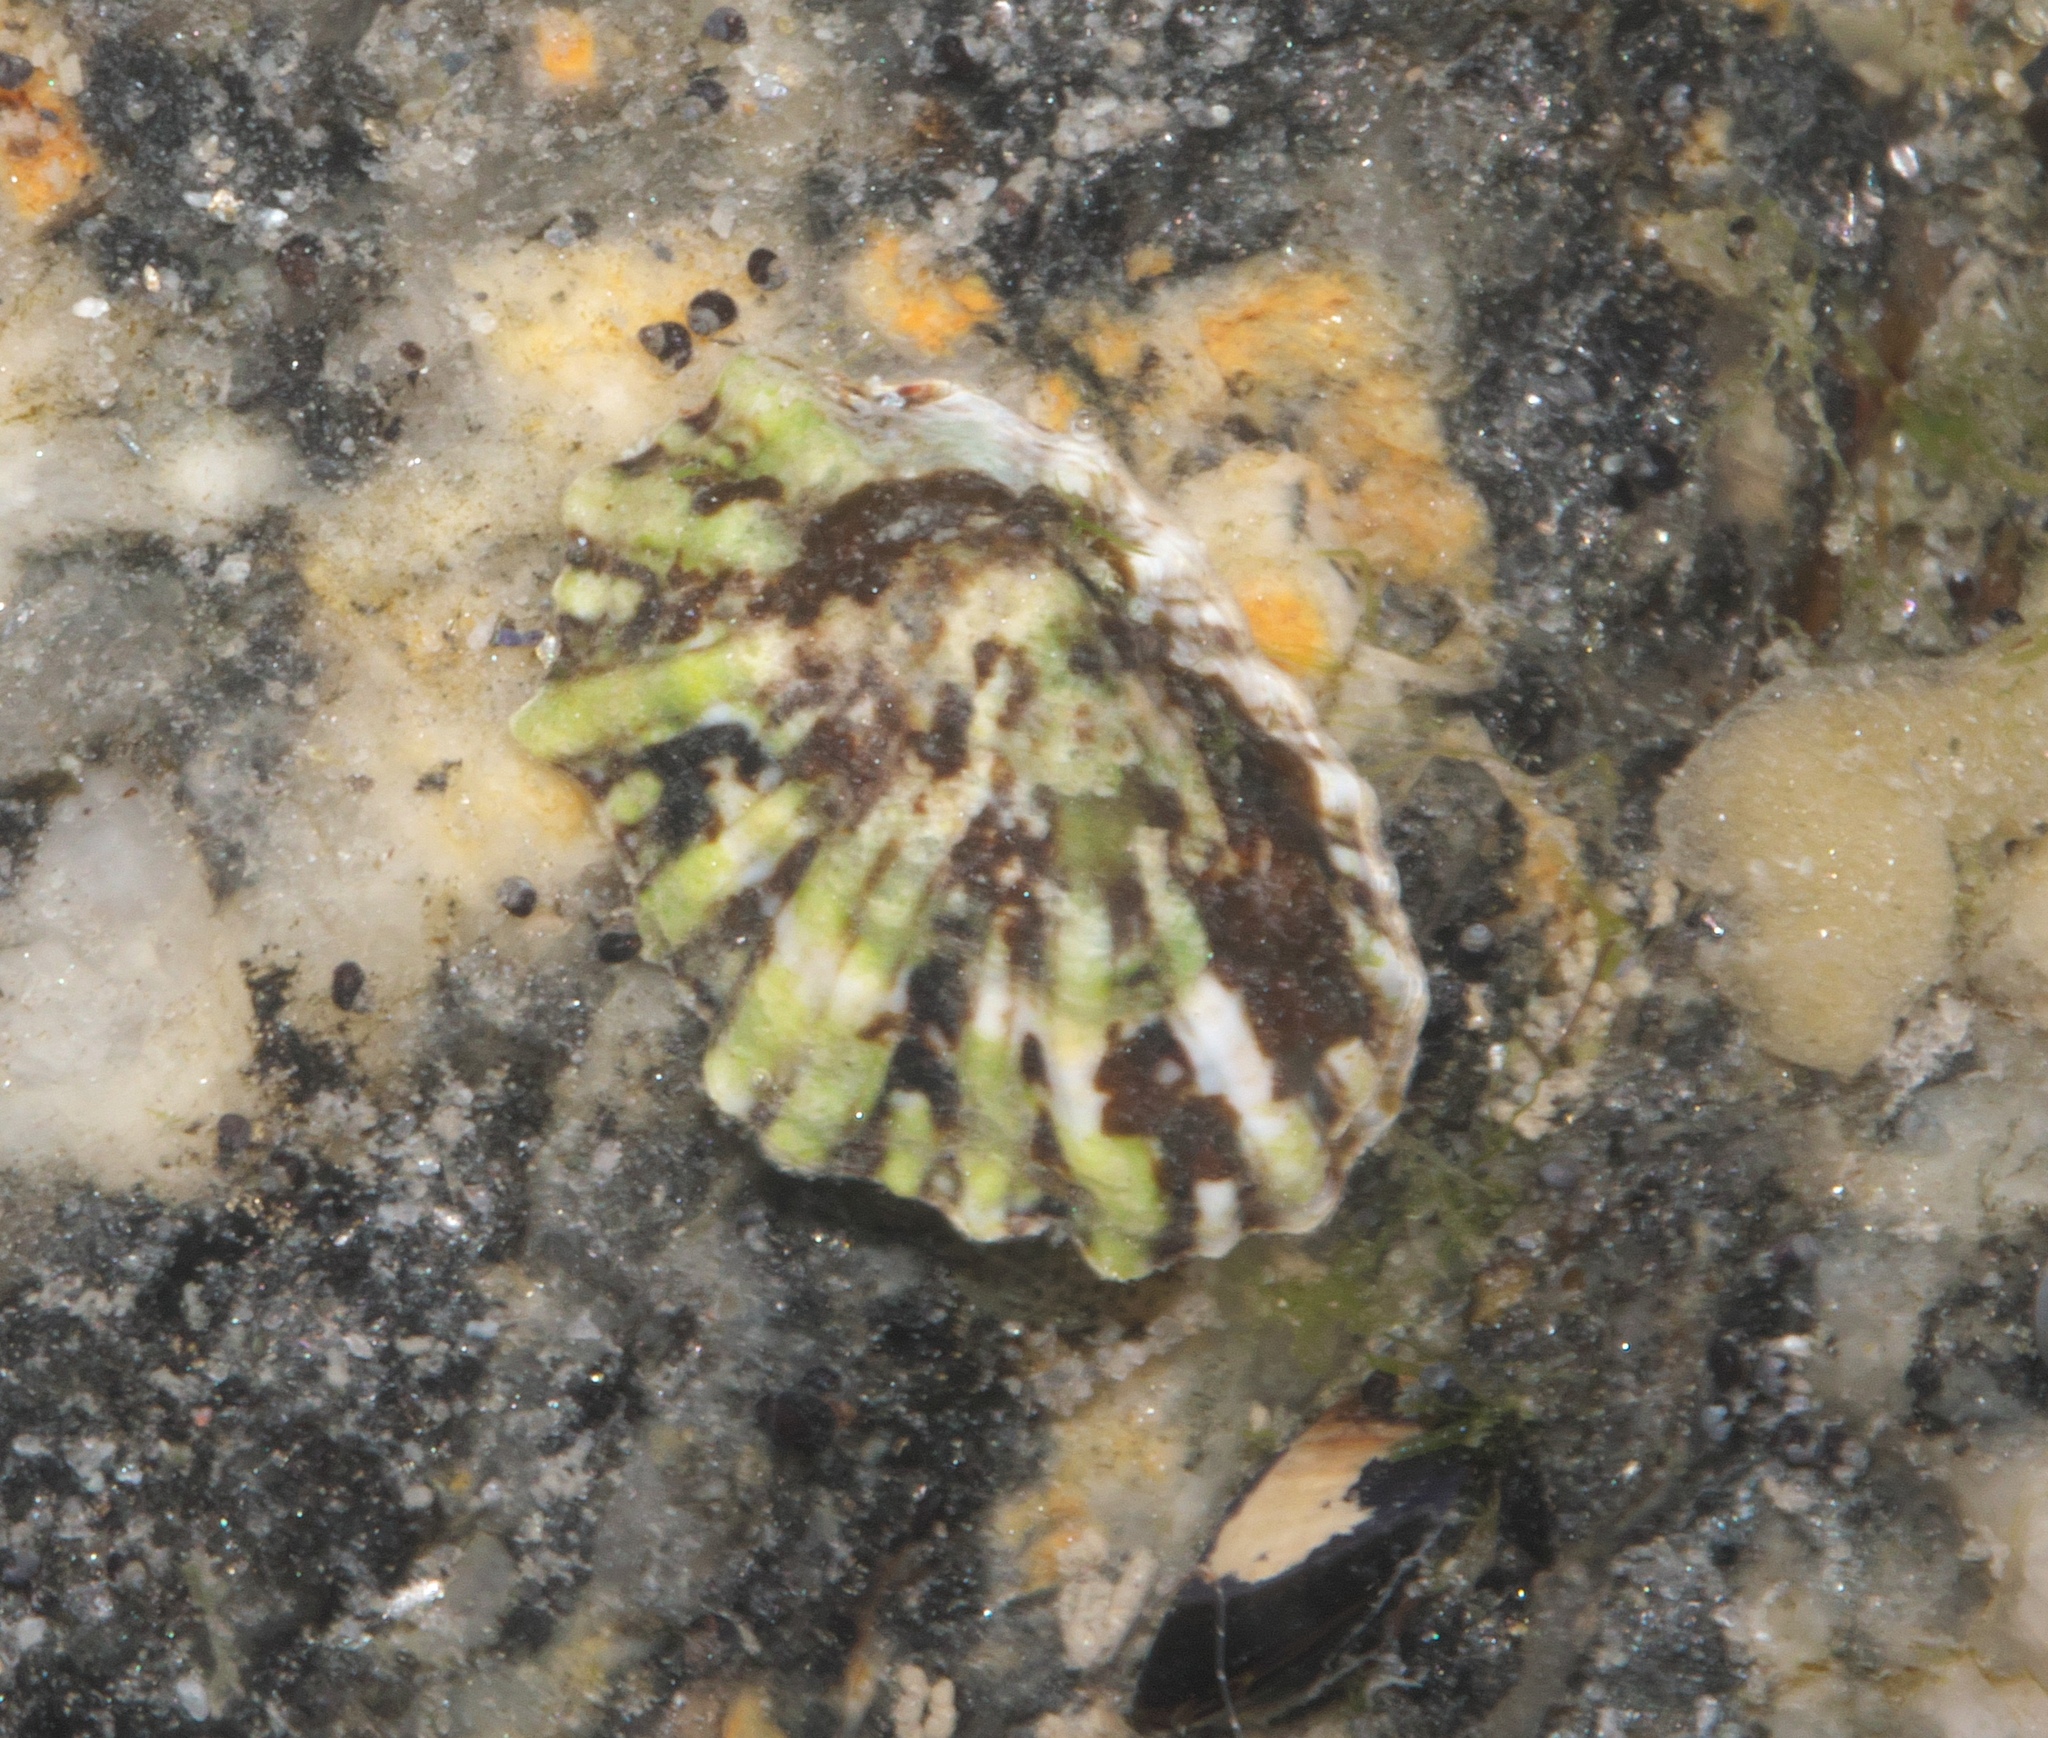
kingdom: Animalia
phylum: Mollusca
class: Gastropoda
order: Siphonariida
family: Siphonariidae
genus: Siphonaria
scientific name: Siphonaria australis
